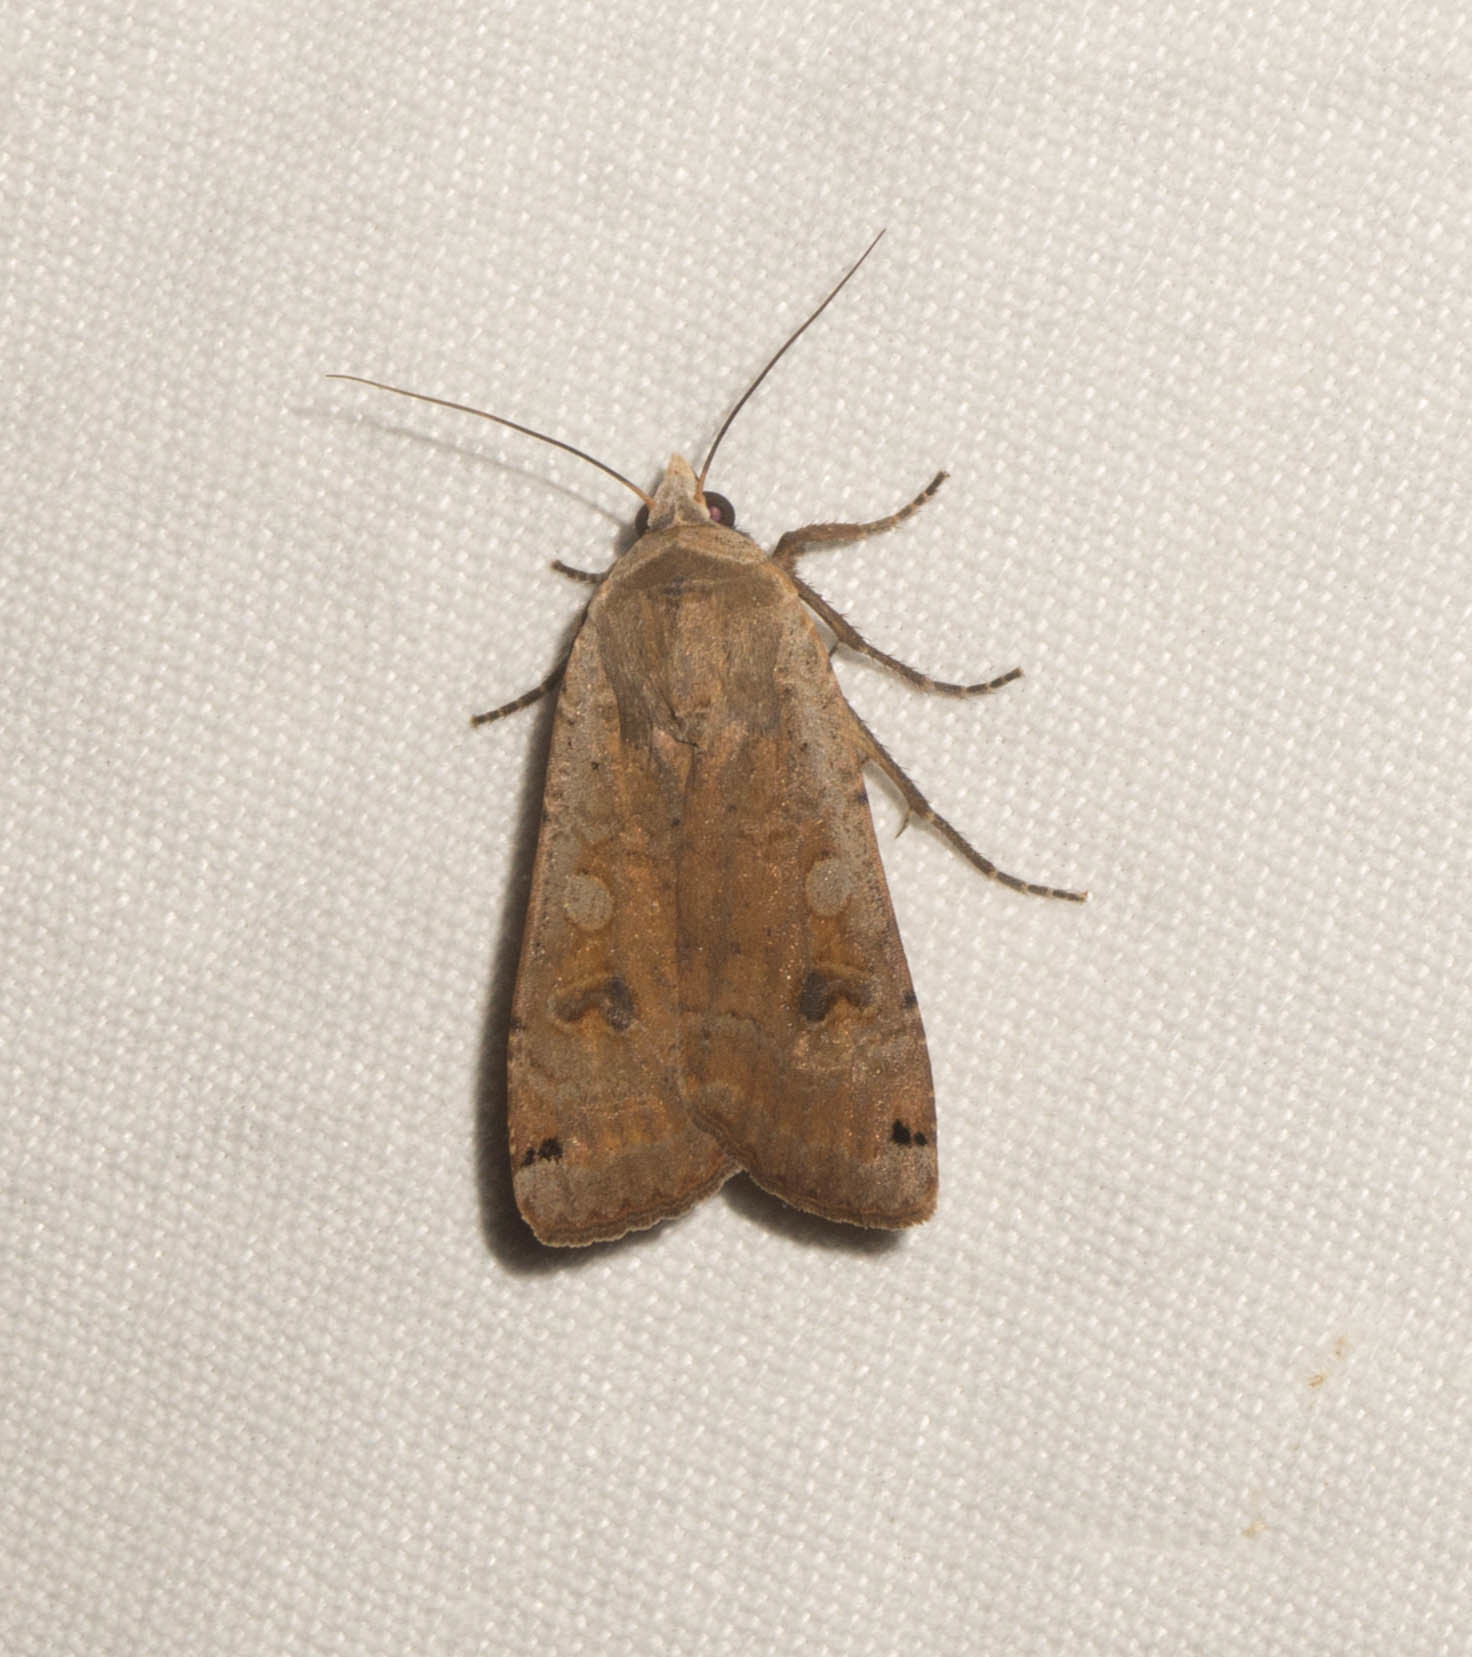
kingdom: Animalia
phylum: Arthropoda
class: Insecta
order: Lepidoptera
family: Noctuidae
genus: Noctua
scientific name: Noctua pronuba
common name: Large yellow underwing
